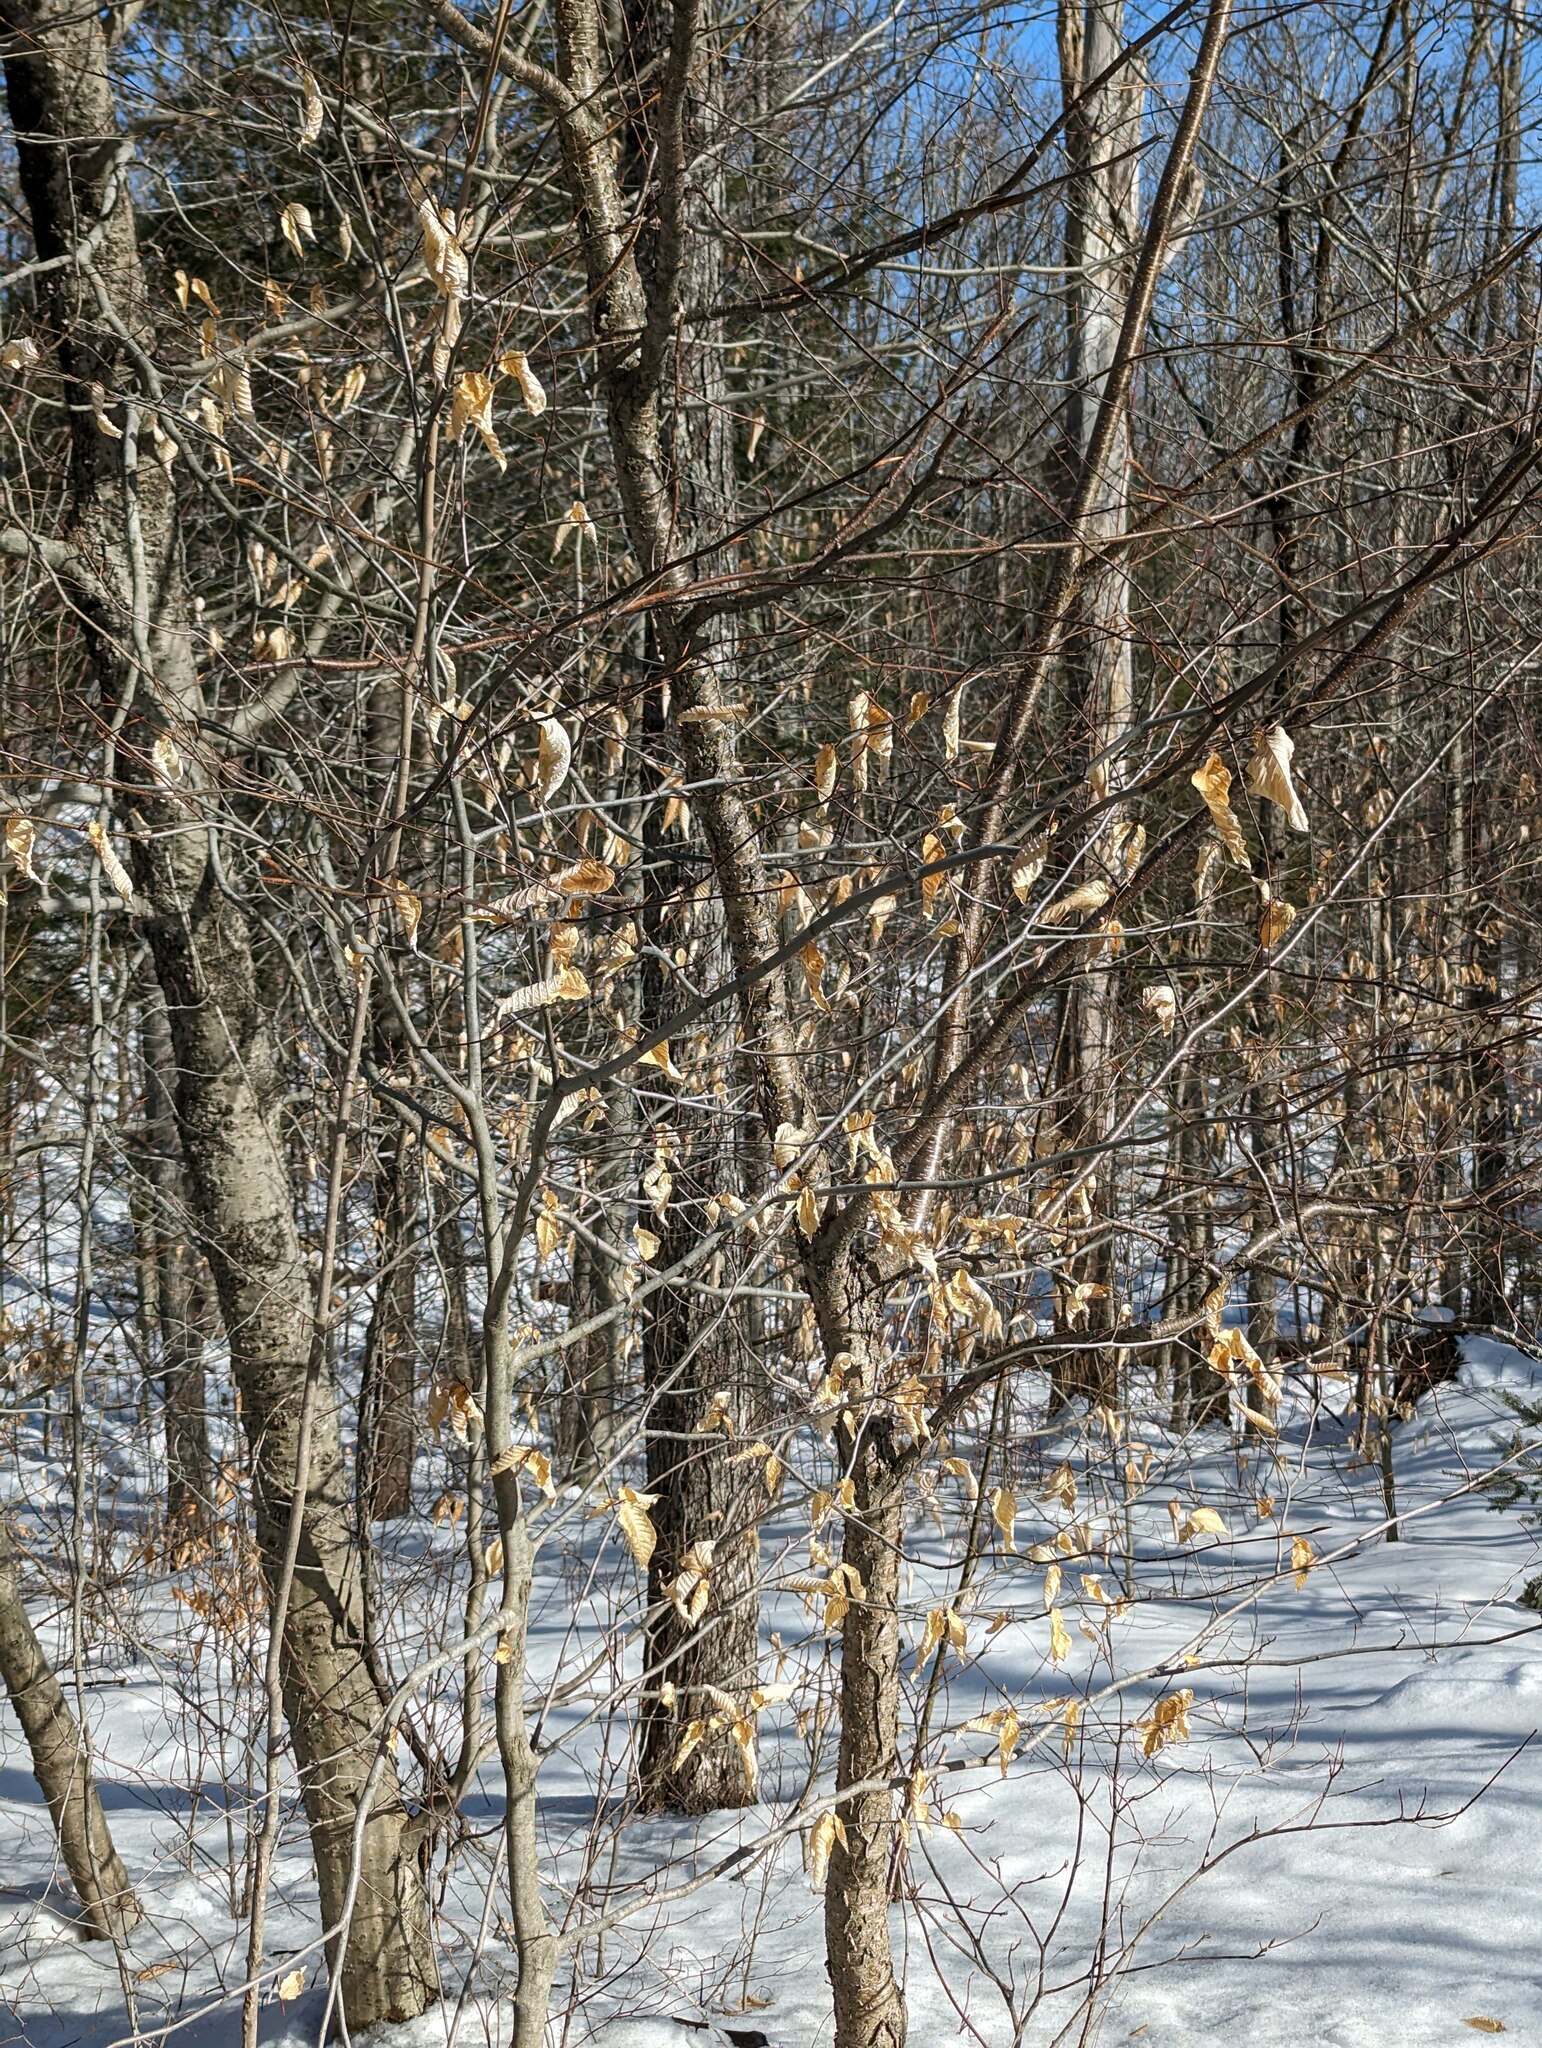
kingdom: Plantae
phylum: Tracheophyta
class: Magnoliopsida
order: Fagales
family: Fagaceae
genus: Fagus
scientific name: Fagus grandifolia
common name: American beech
